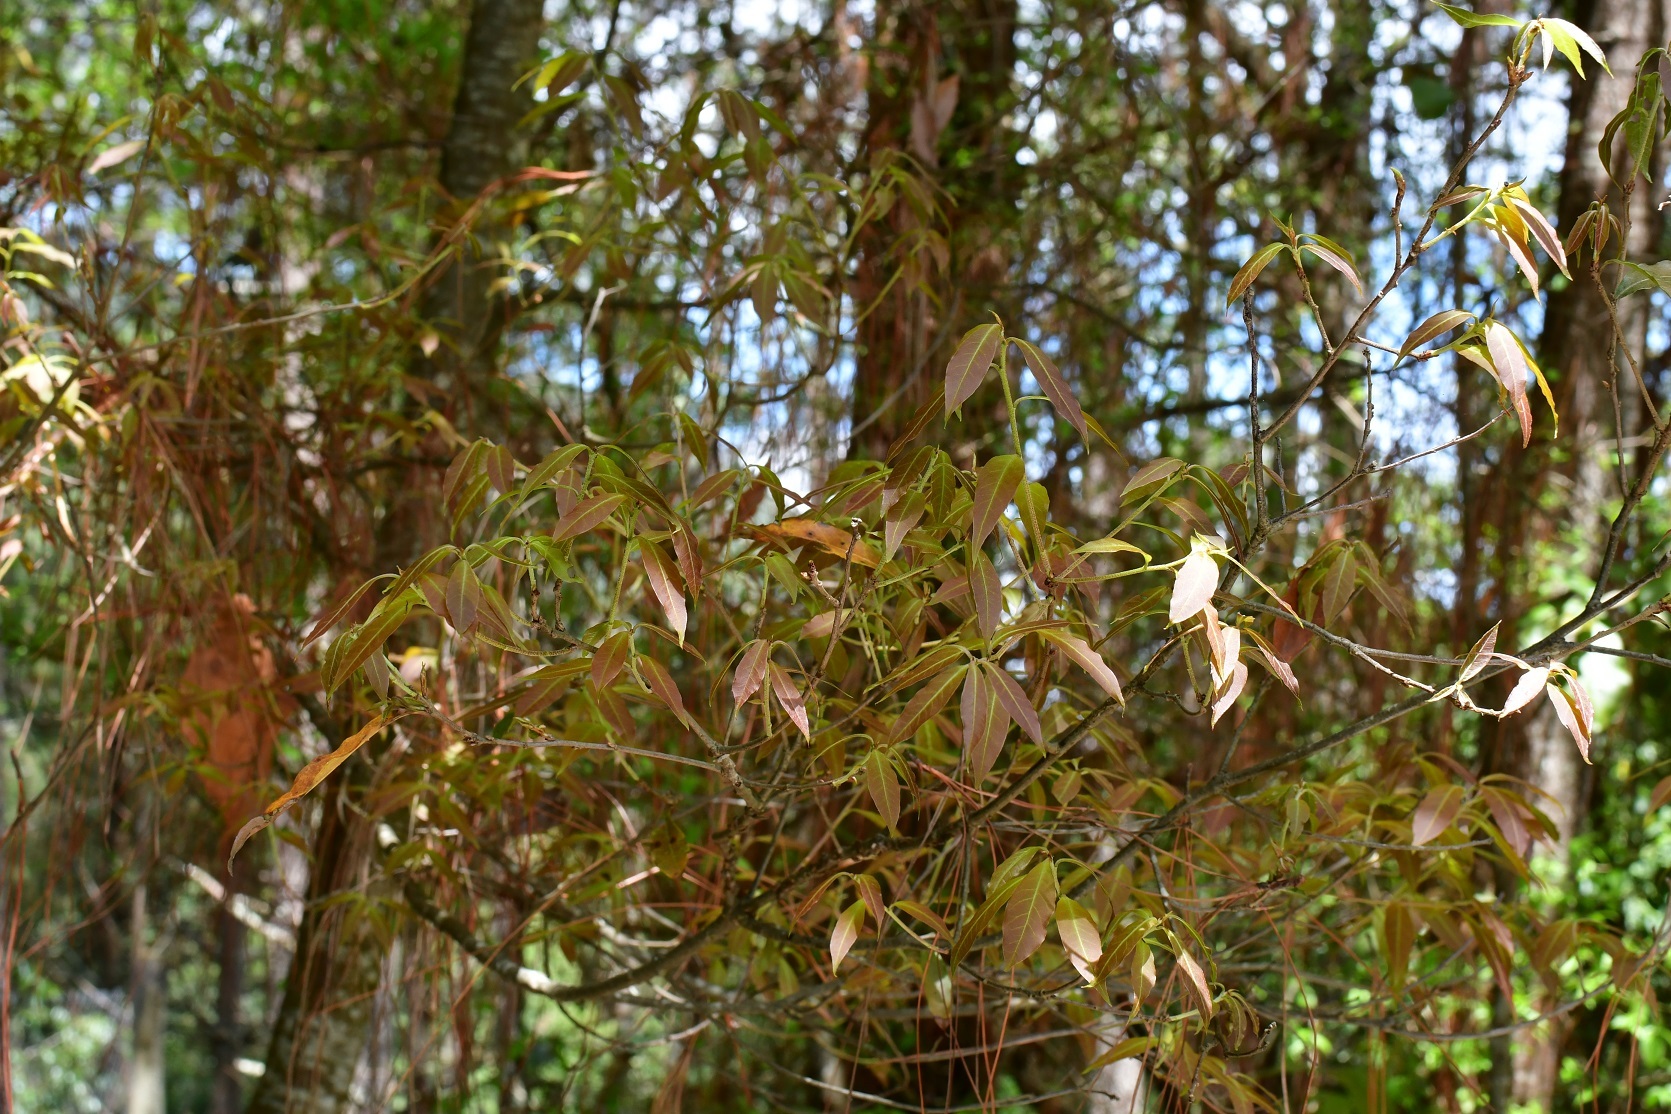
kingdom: Plantae
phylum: Tracheophyta
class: Magnoliopsida
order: Fagales
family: Fagaceae
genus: Quercus
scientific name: Quercus laurina
